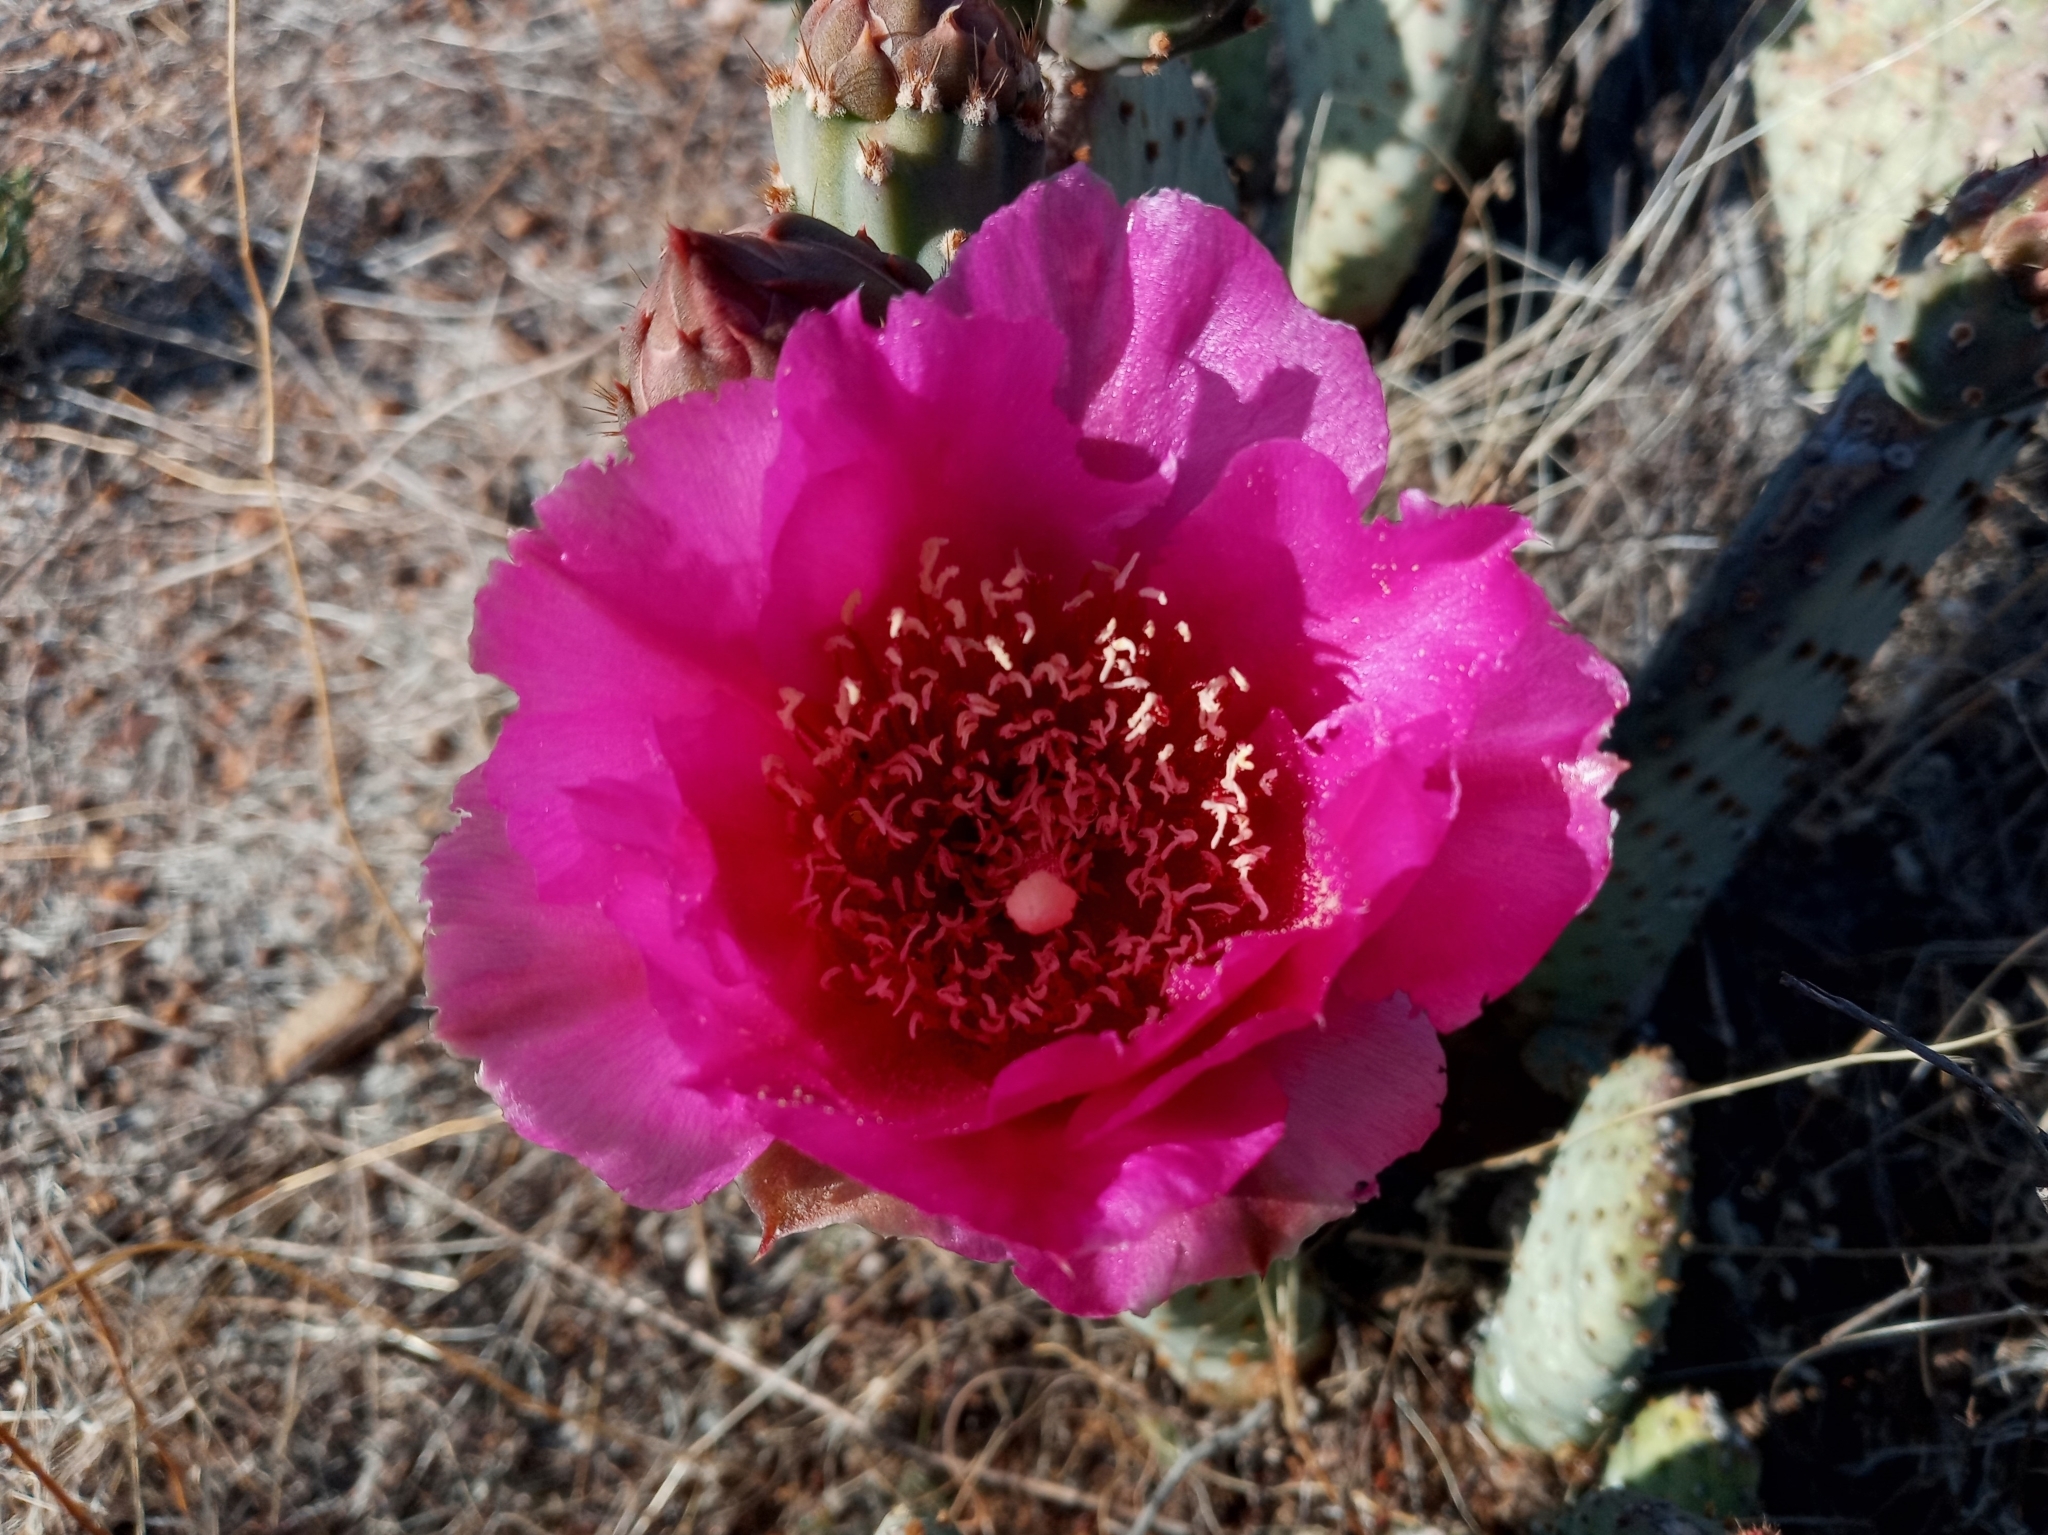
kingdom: Plantae
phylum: Tracheophyta
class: Magnoliopsida
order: Caryophyllales
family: Cactaceae
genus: Opuntia
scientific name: Opuntia basilaris
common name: Beavertail prickly-pear
